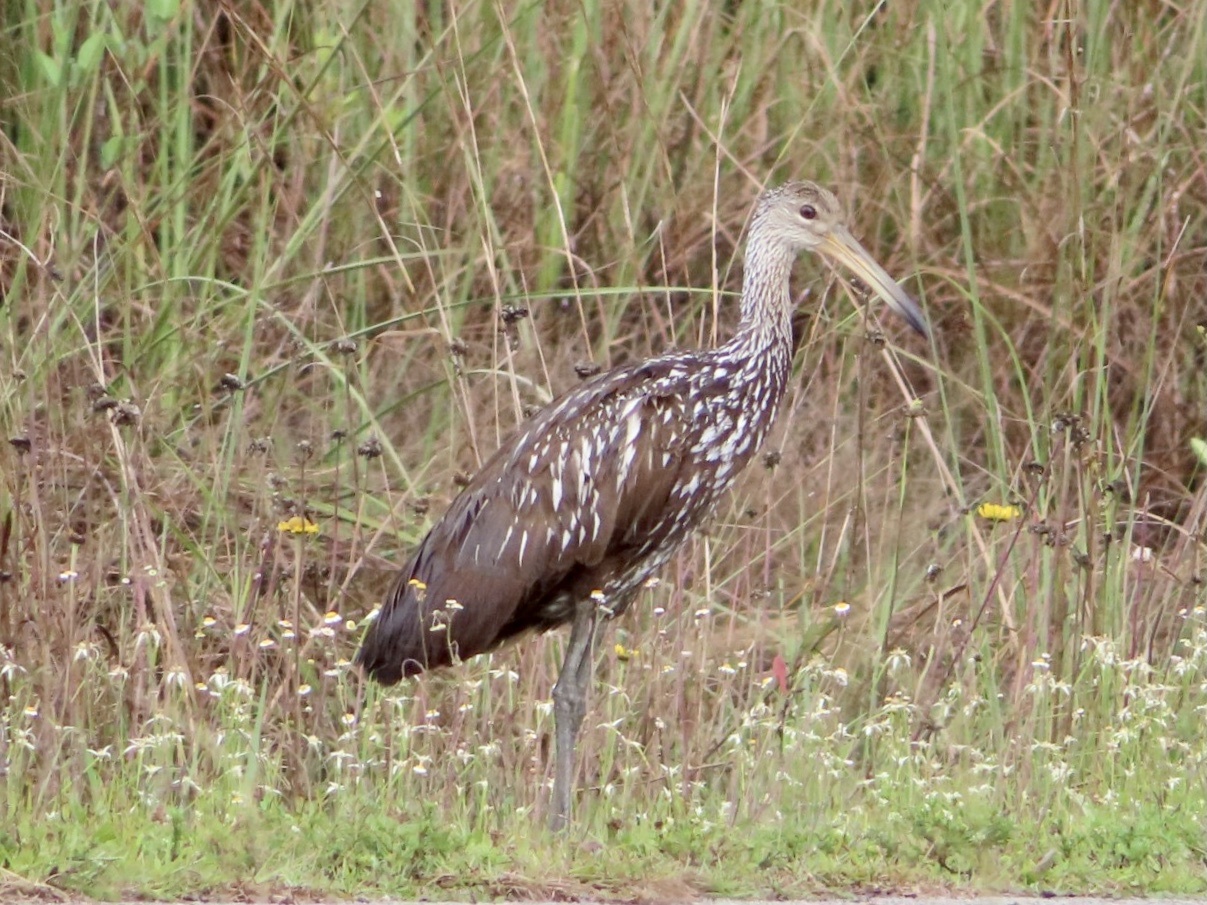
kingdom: Animalia
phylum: Chordata
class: Aves
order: Gruiformes
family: Aramidae
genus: Aramus
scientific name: Aramus guarauna
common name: Limpkin
